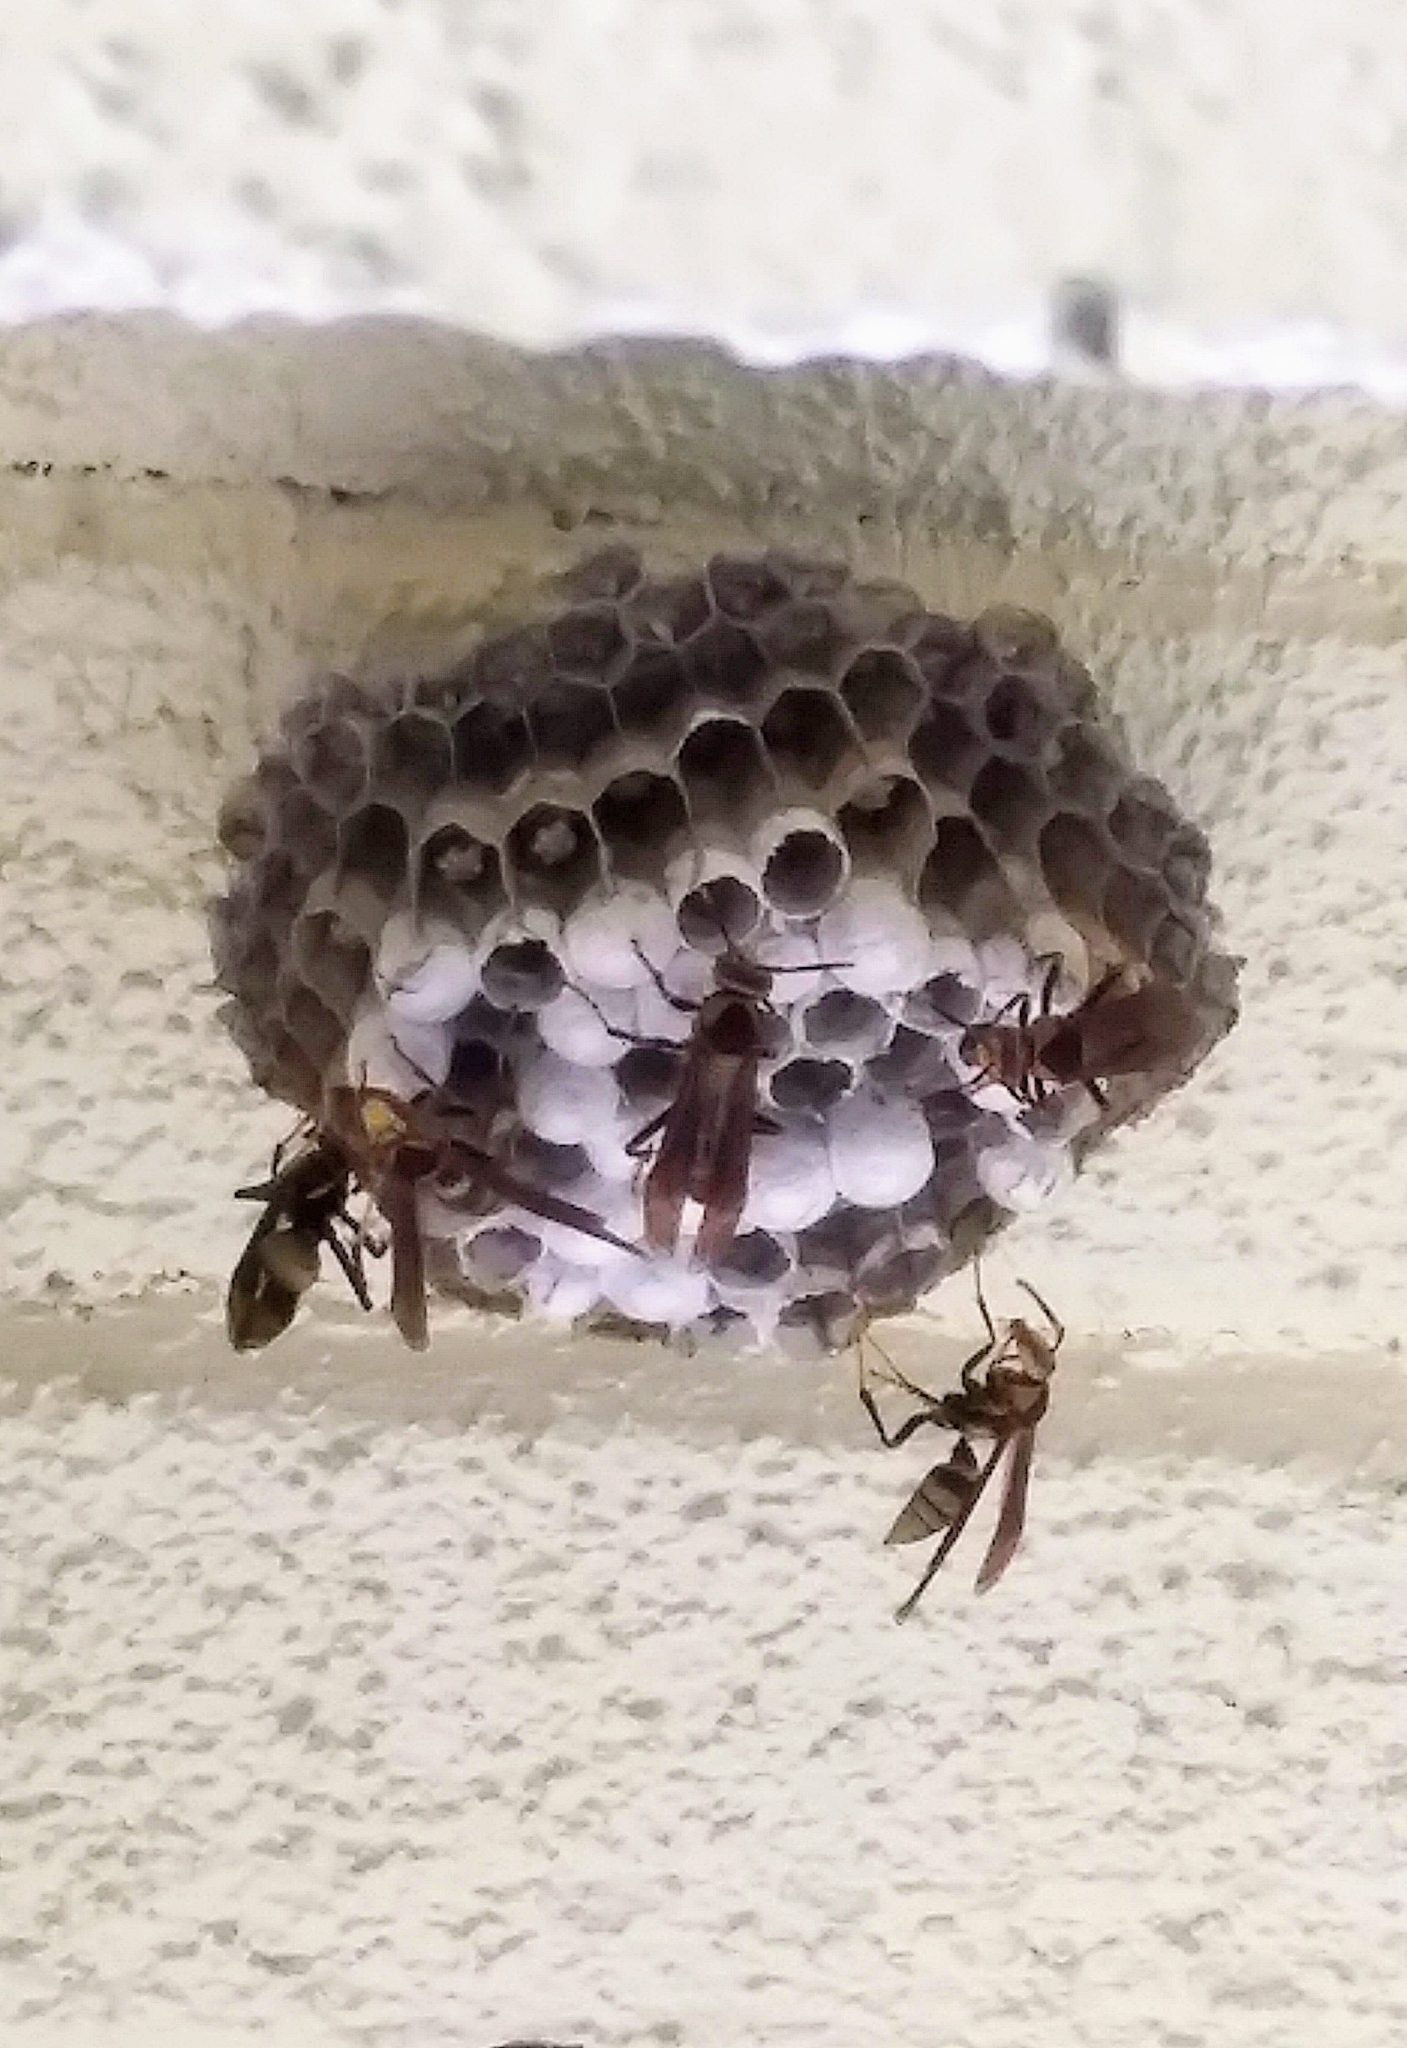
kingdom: Animalia
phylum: Arthropoda
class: Insecta
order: Hymenoptera
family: Eumenidae
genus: Polistes
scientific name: Polistes major
